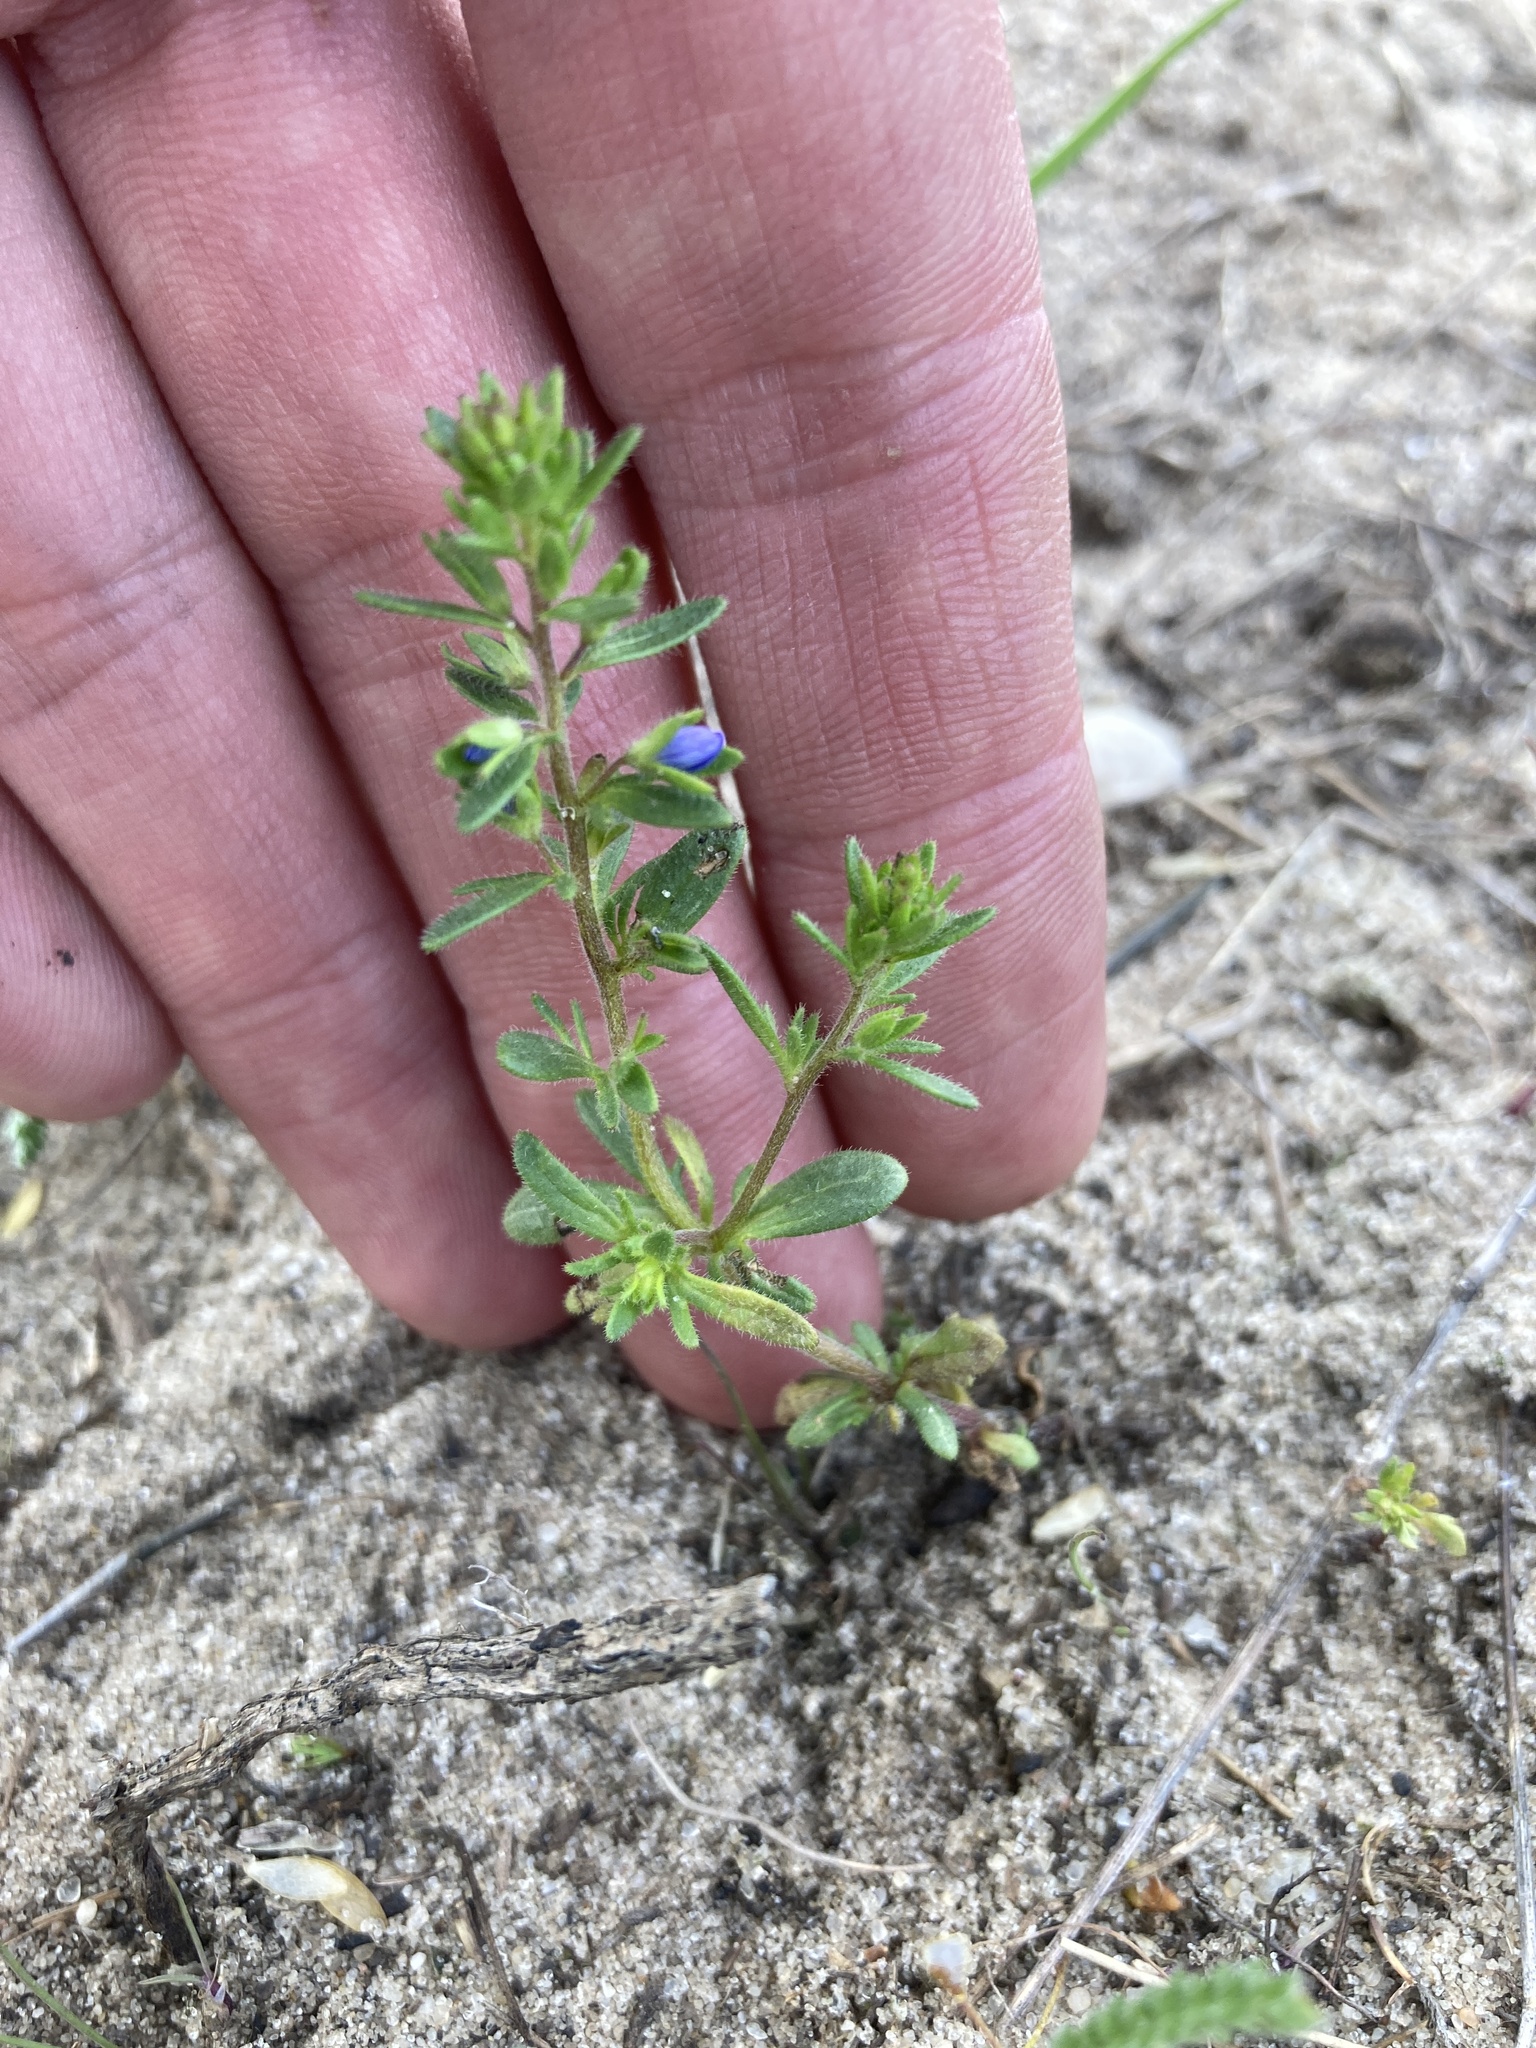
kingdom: Plantae
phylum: Tracheophyta
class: Magnoliopsida
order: Lamiales
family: Plantaginaceae
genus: Veronica
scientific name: Veronica verna
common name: Spring speedwell
